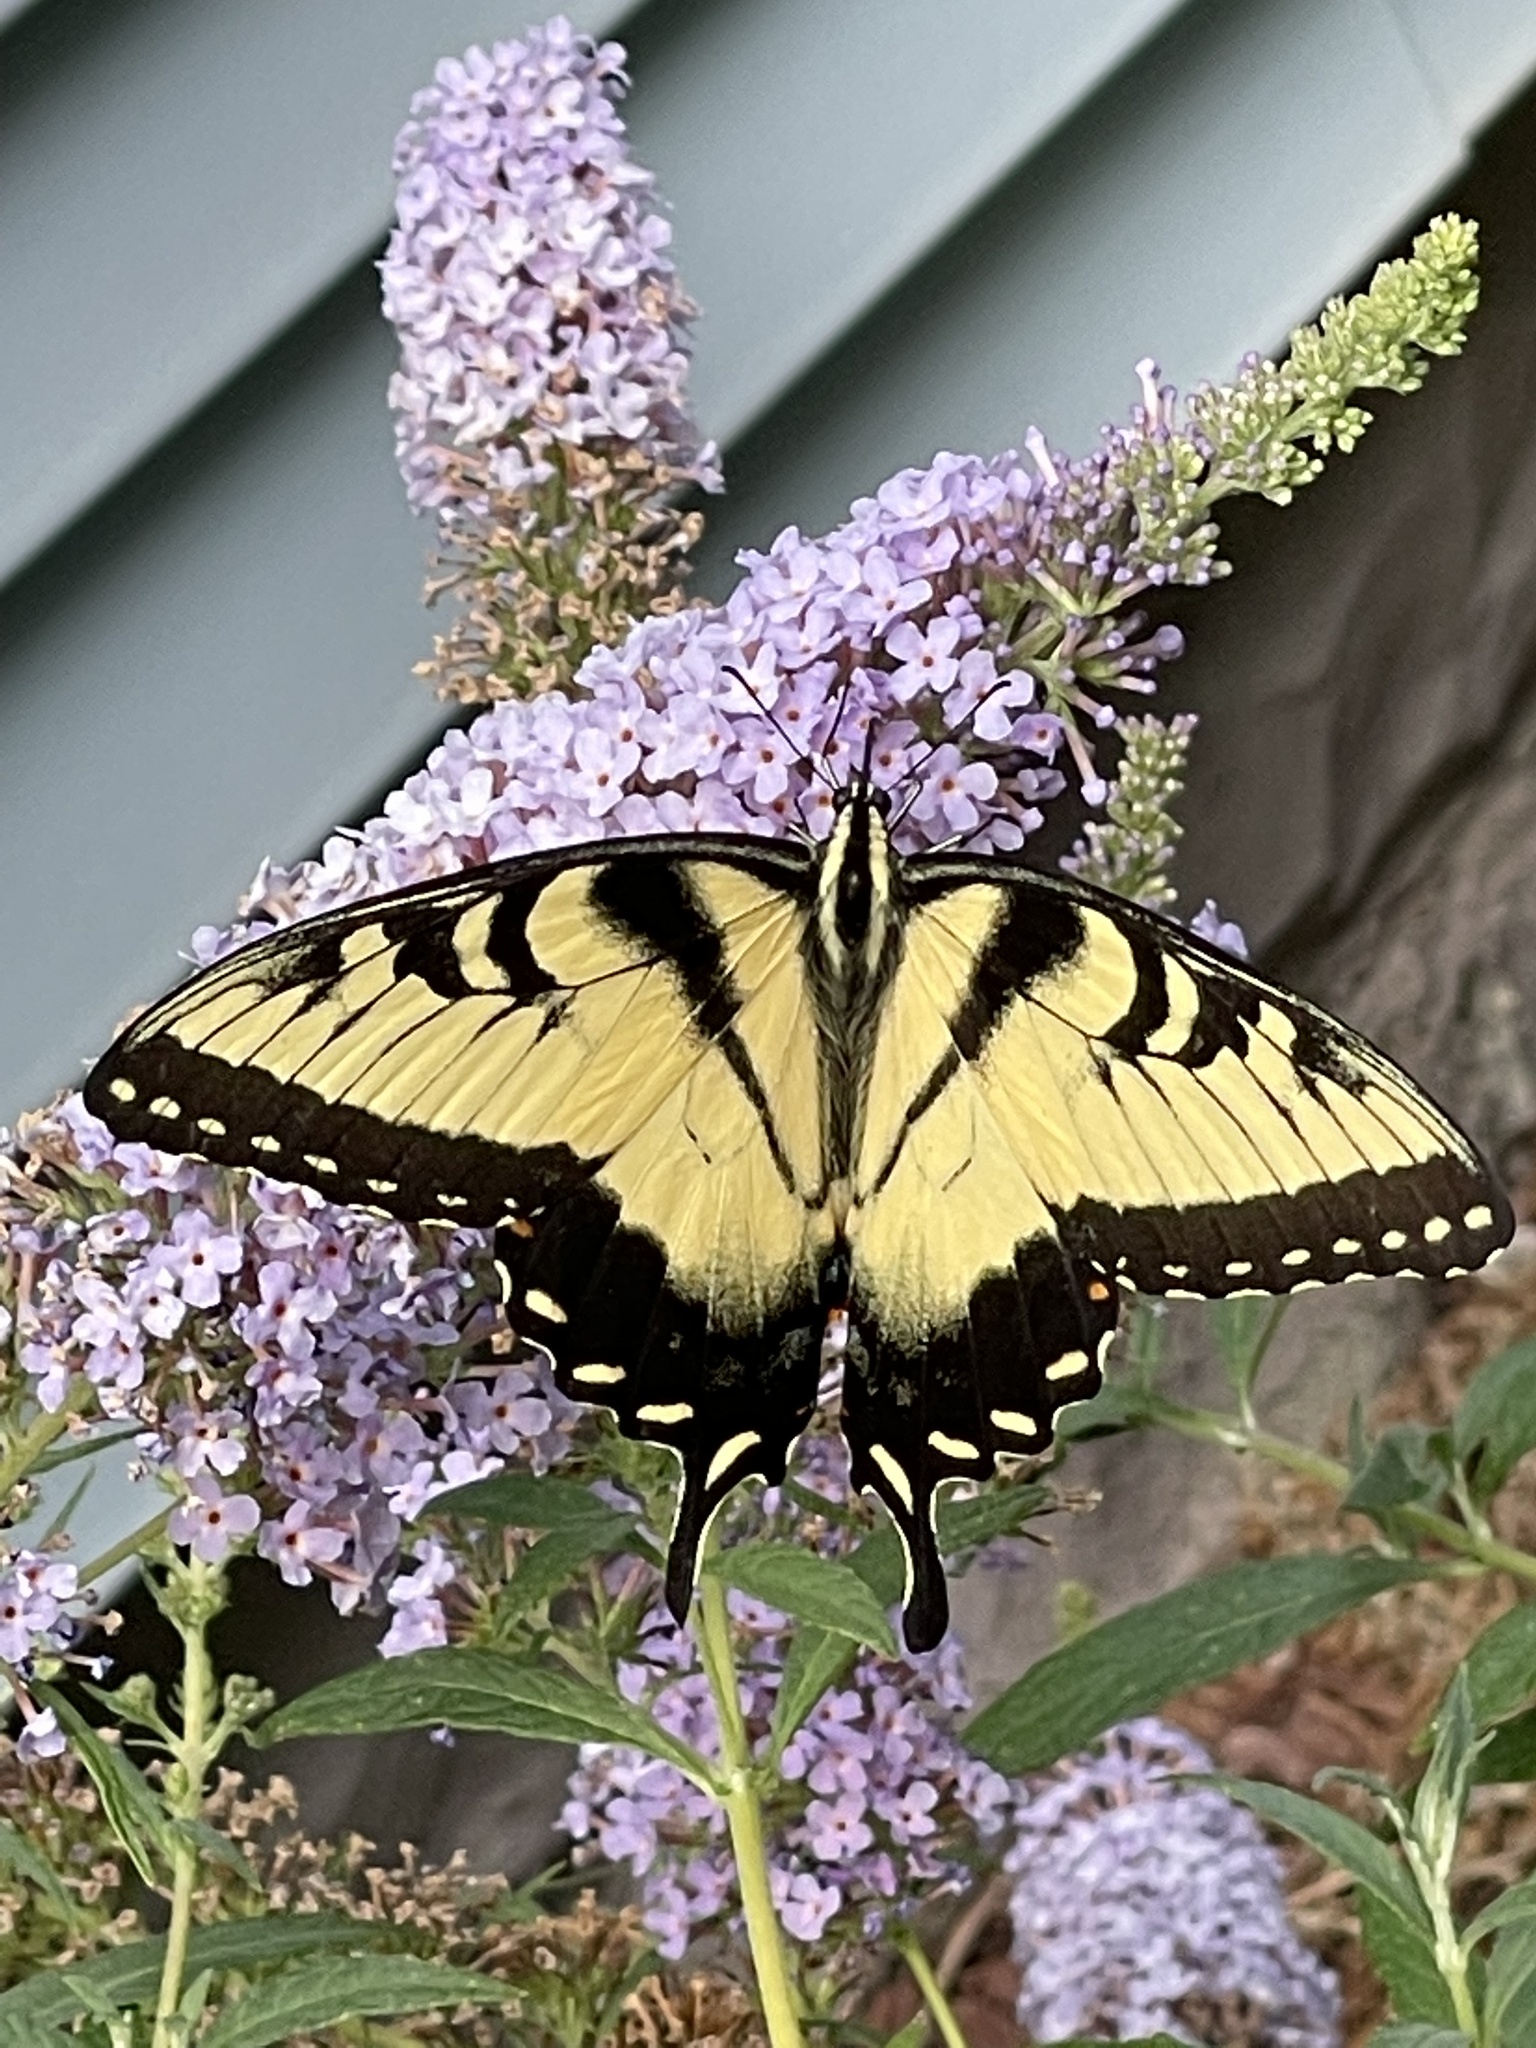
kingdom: Animalia
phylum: Arthropoda
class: Insecta
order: Lepidoptera
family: Papilionidae
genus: Papilio
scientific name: Papilio glaucus
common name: Tiger swallowtail
